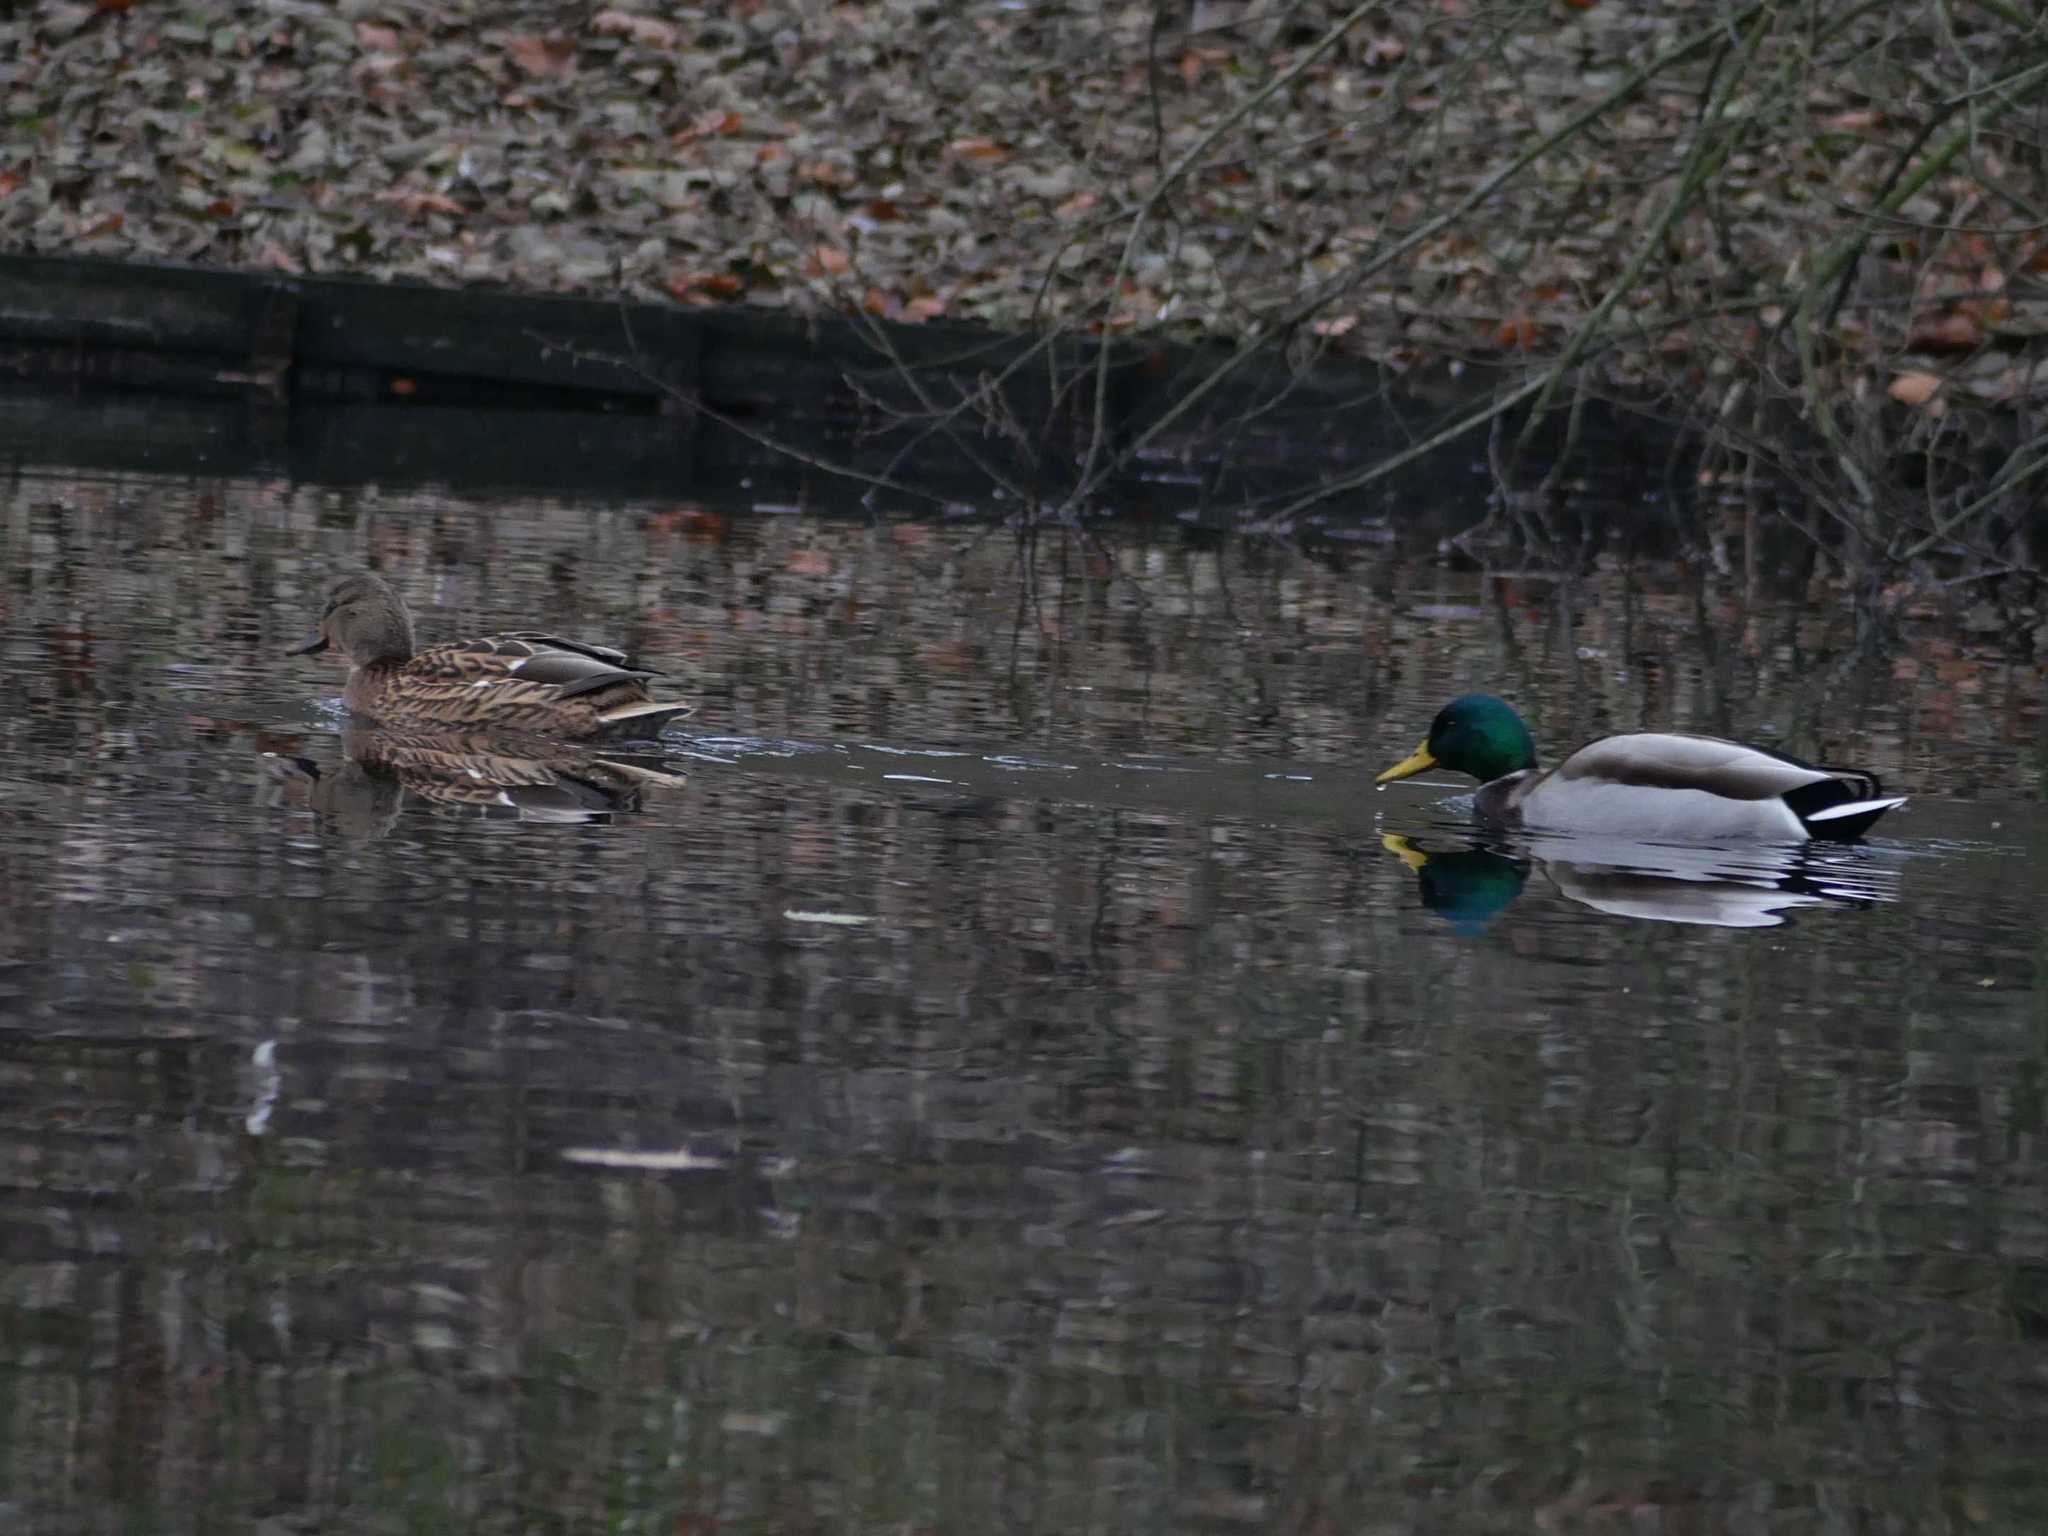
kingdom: Animalia
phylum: Chordata
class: Aves
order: Anseriformes
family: Anatidae
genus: Anas
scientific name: Anas platyrhynchos
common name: Mallard
